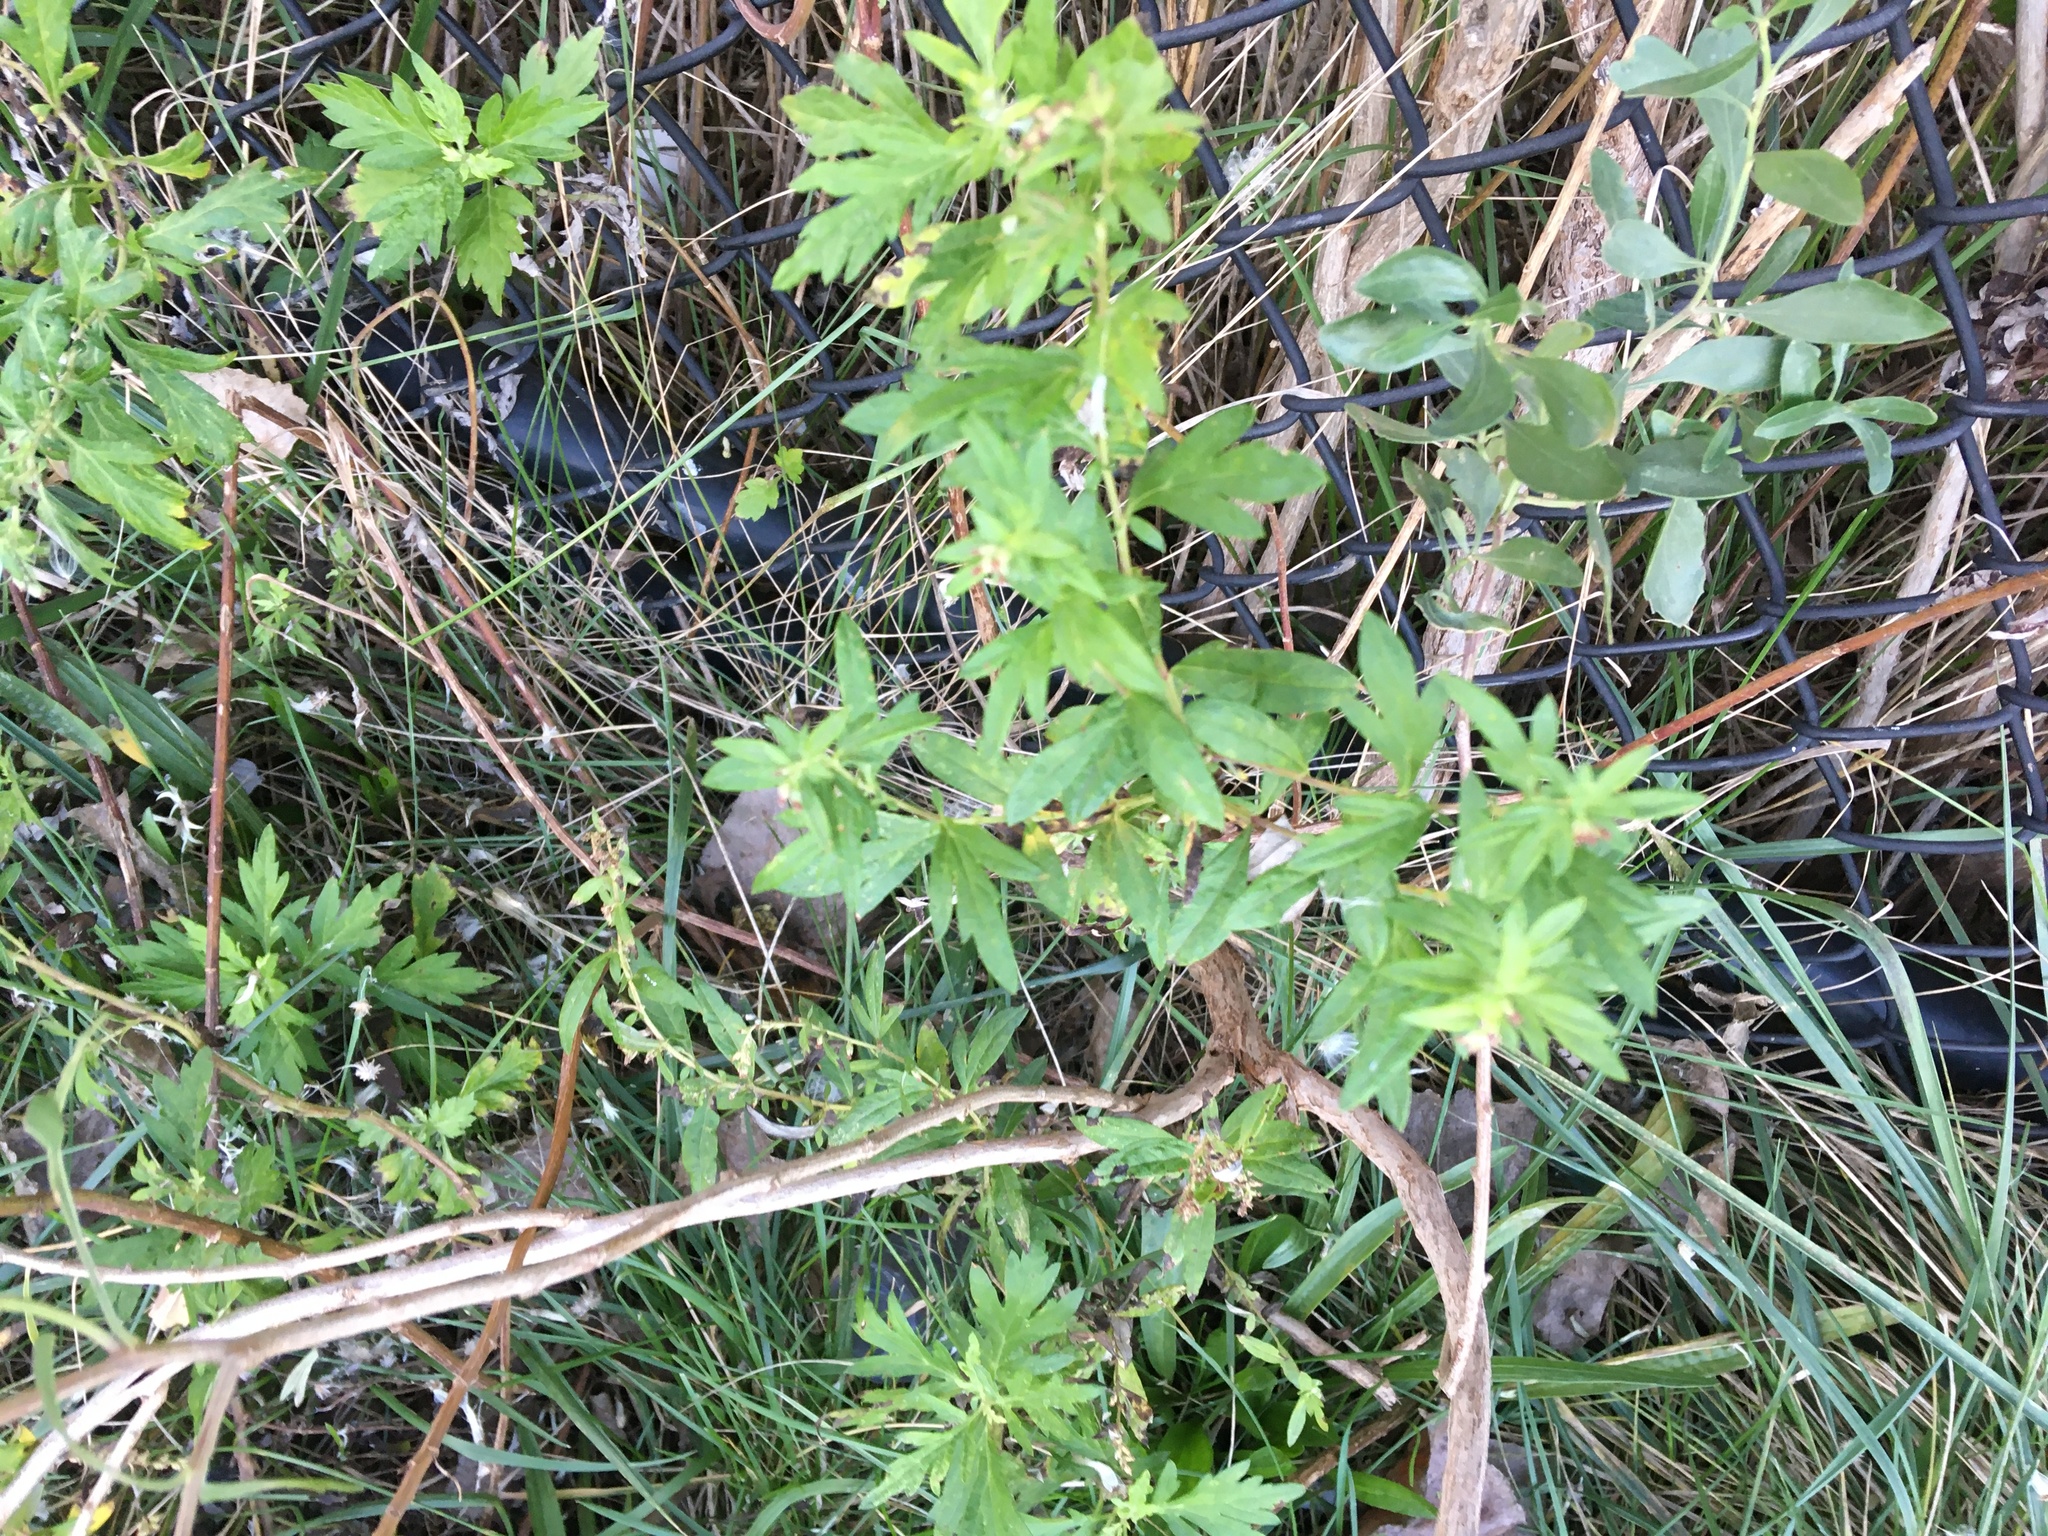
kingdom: Plantae
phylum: Tracheophyta
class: Magnoliopsida
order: Asterales
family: Asteraceae
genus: Artemisia
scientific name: Artemisia vulgaris
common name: Mugwort
